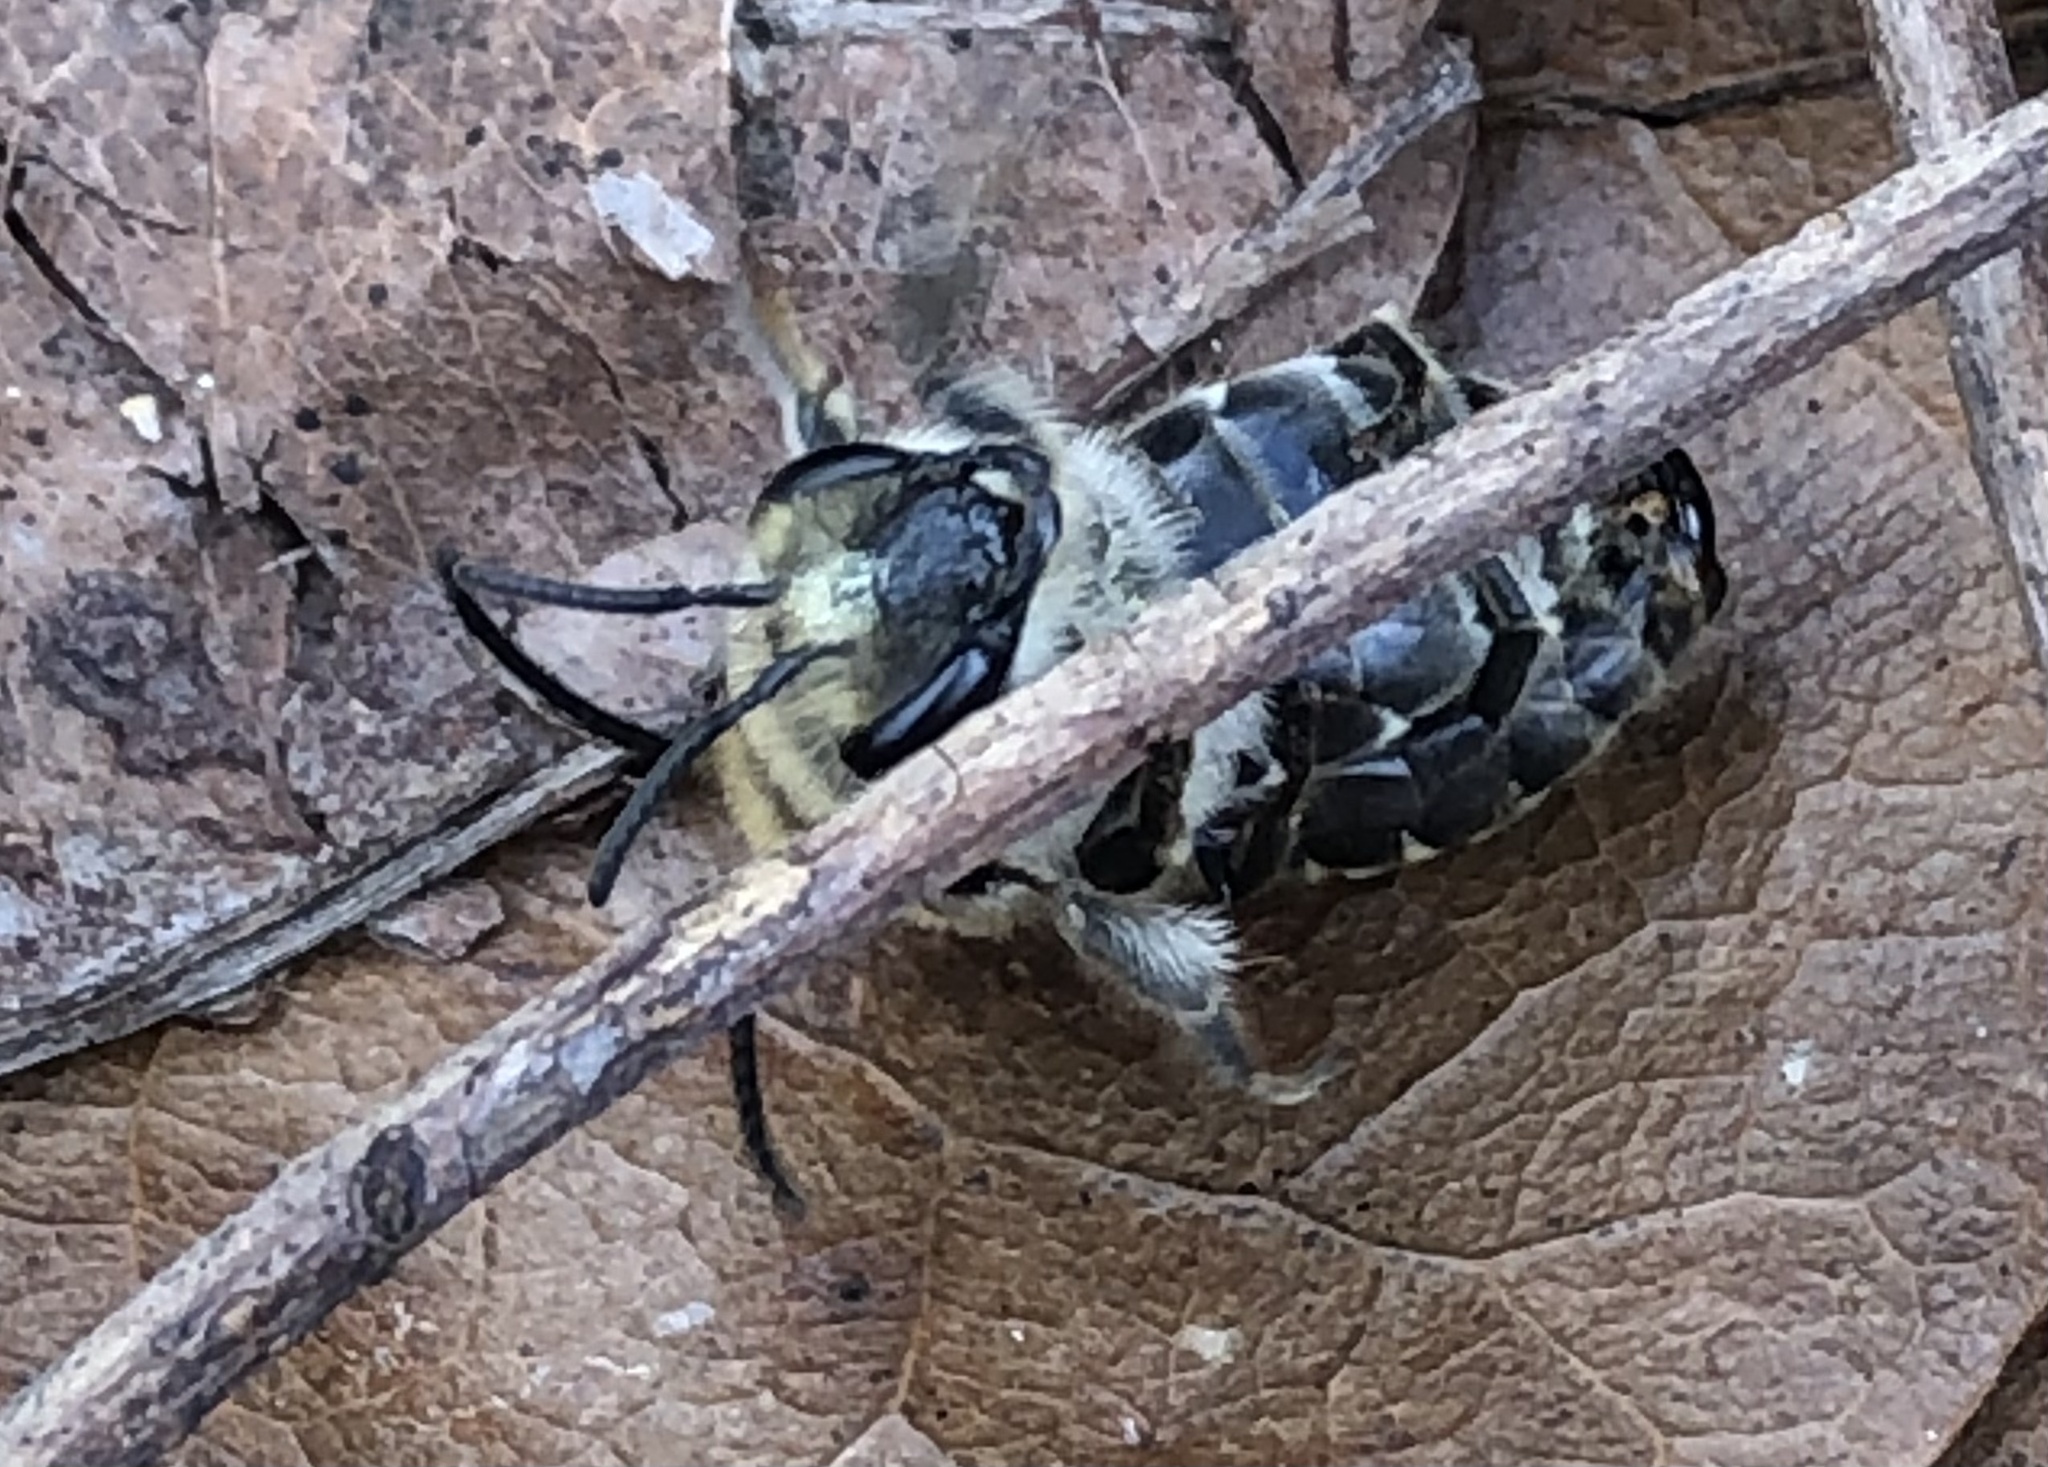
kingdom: Animalia
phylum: Arthropoda
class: Insecta
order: Hymenoptera
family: Colletidae
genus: Colletes
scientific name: Colletes inaequalis
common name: Unequal cellophane bee
